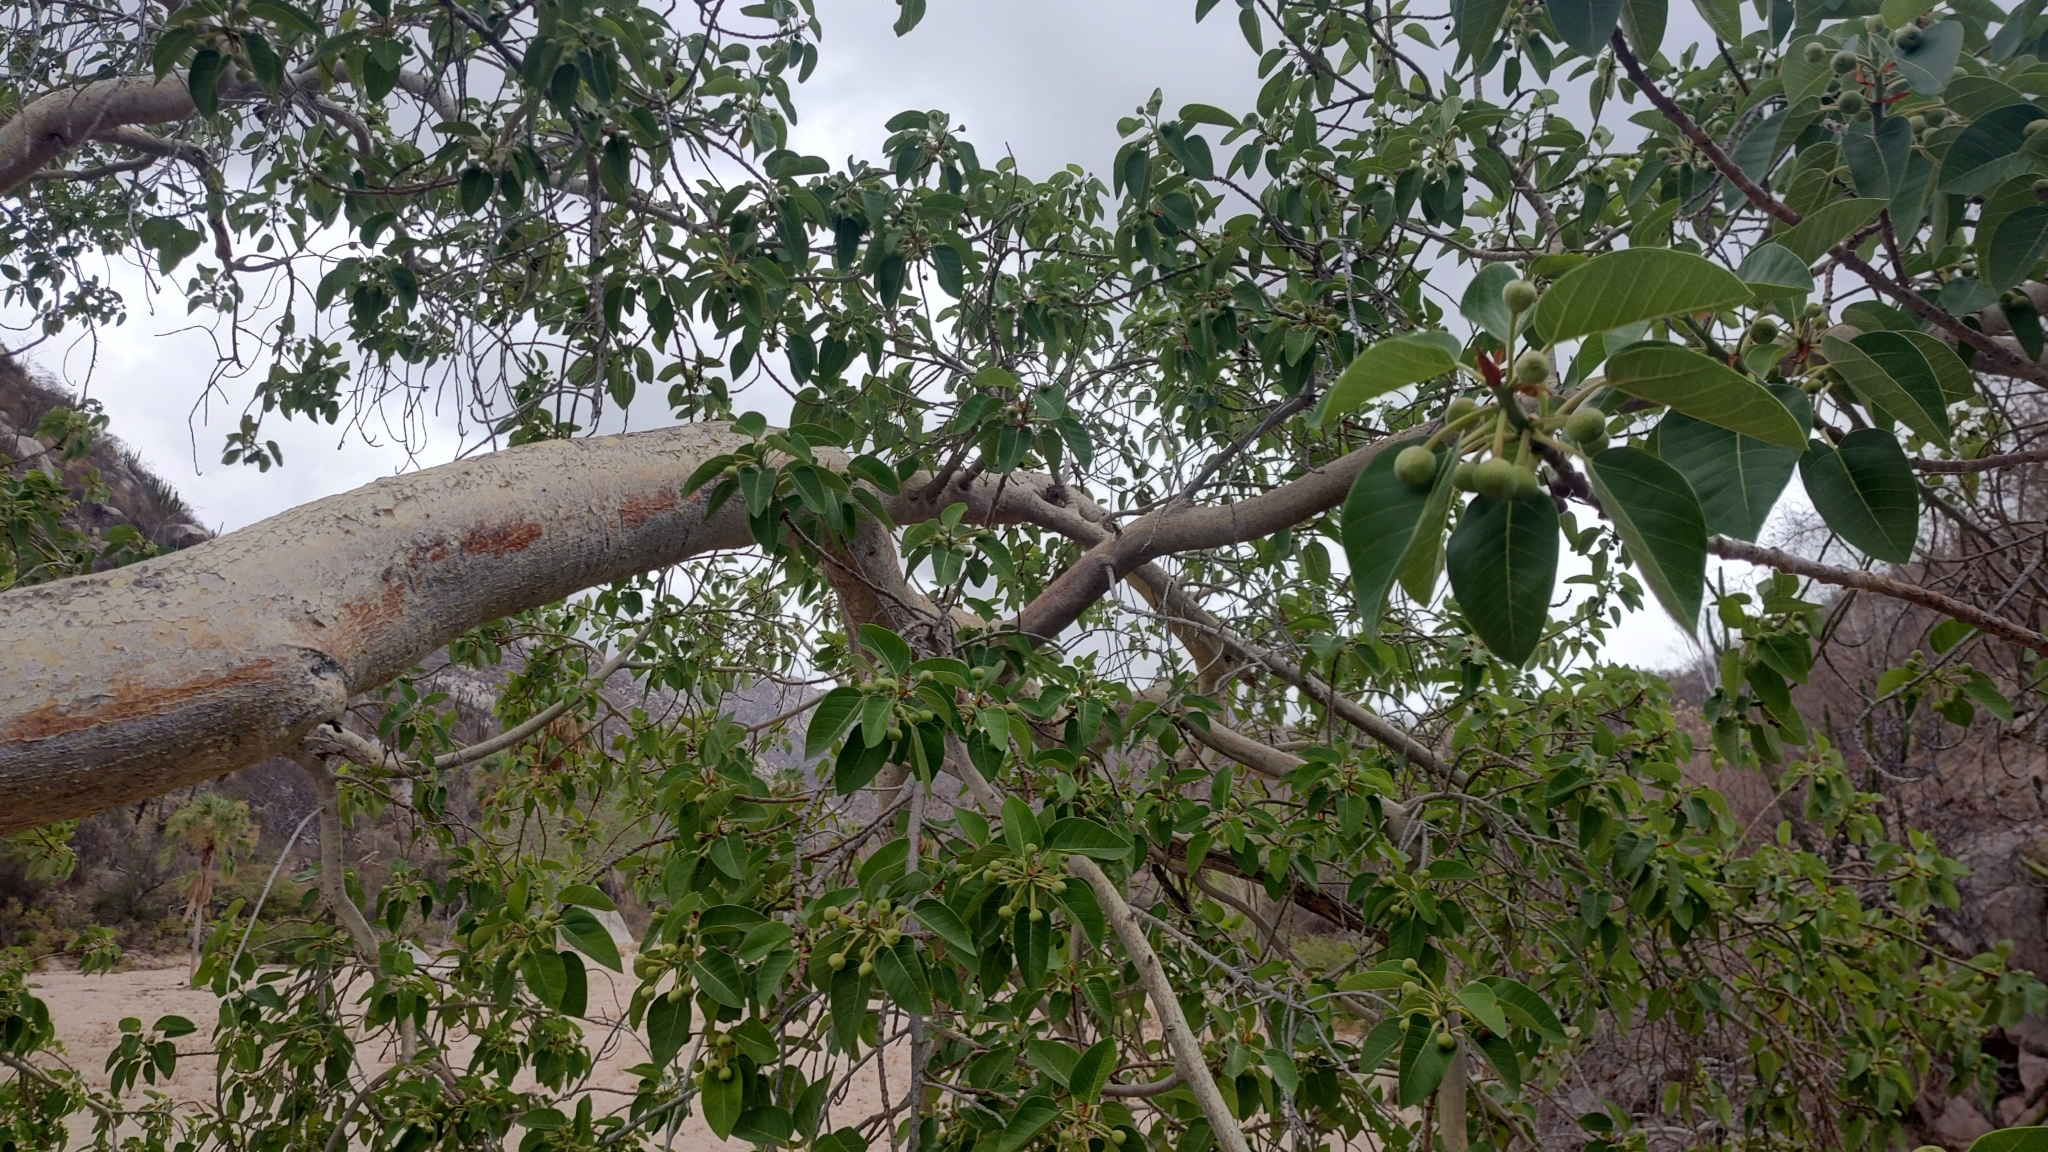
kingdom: Plantae
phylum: Tracheophyta
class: Magnoliopsida
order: Rosales
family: Moraceae
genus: Ficus
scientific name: Ficus petiolaris
